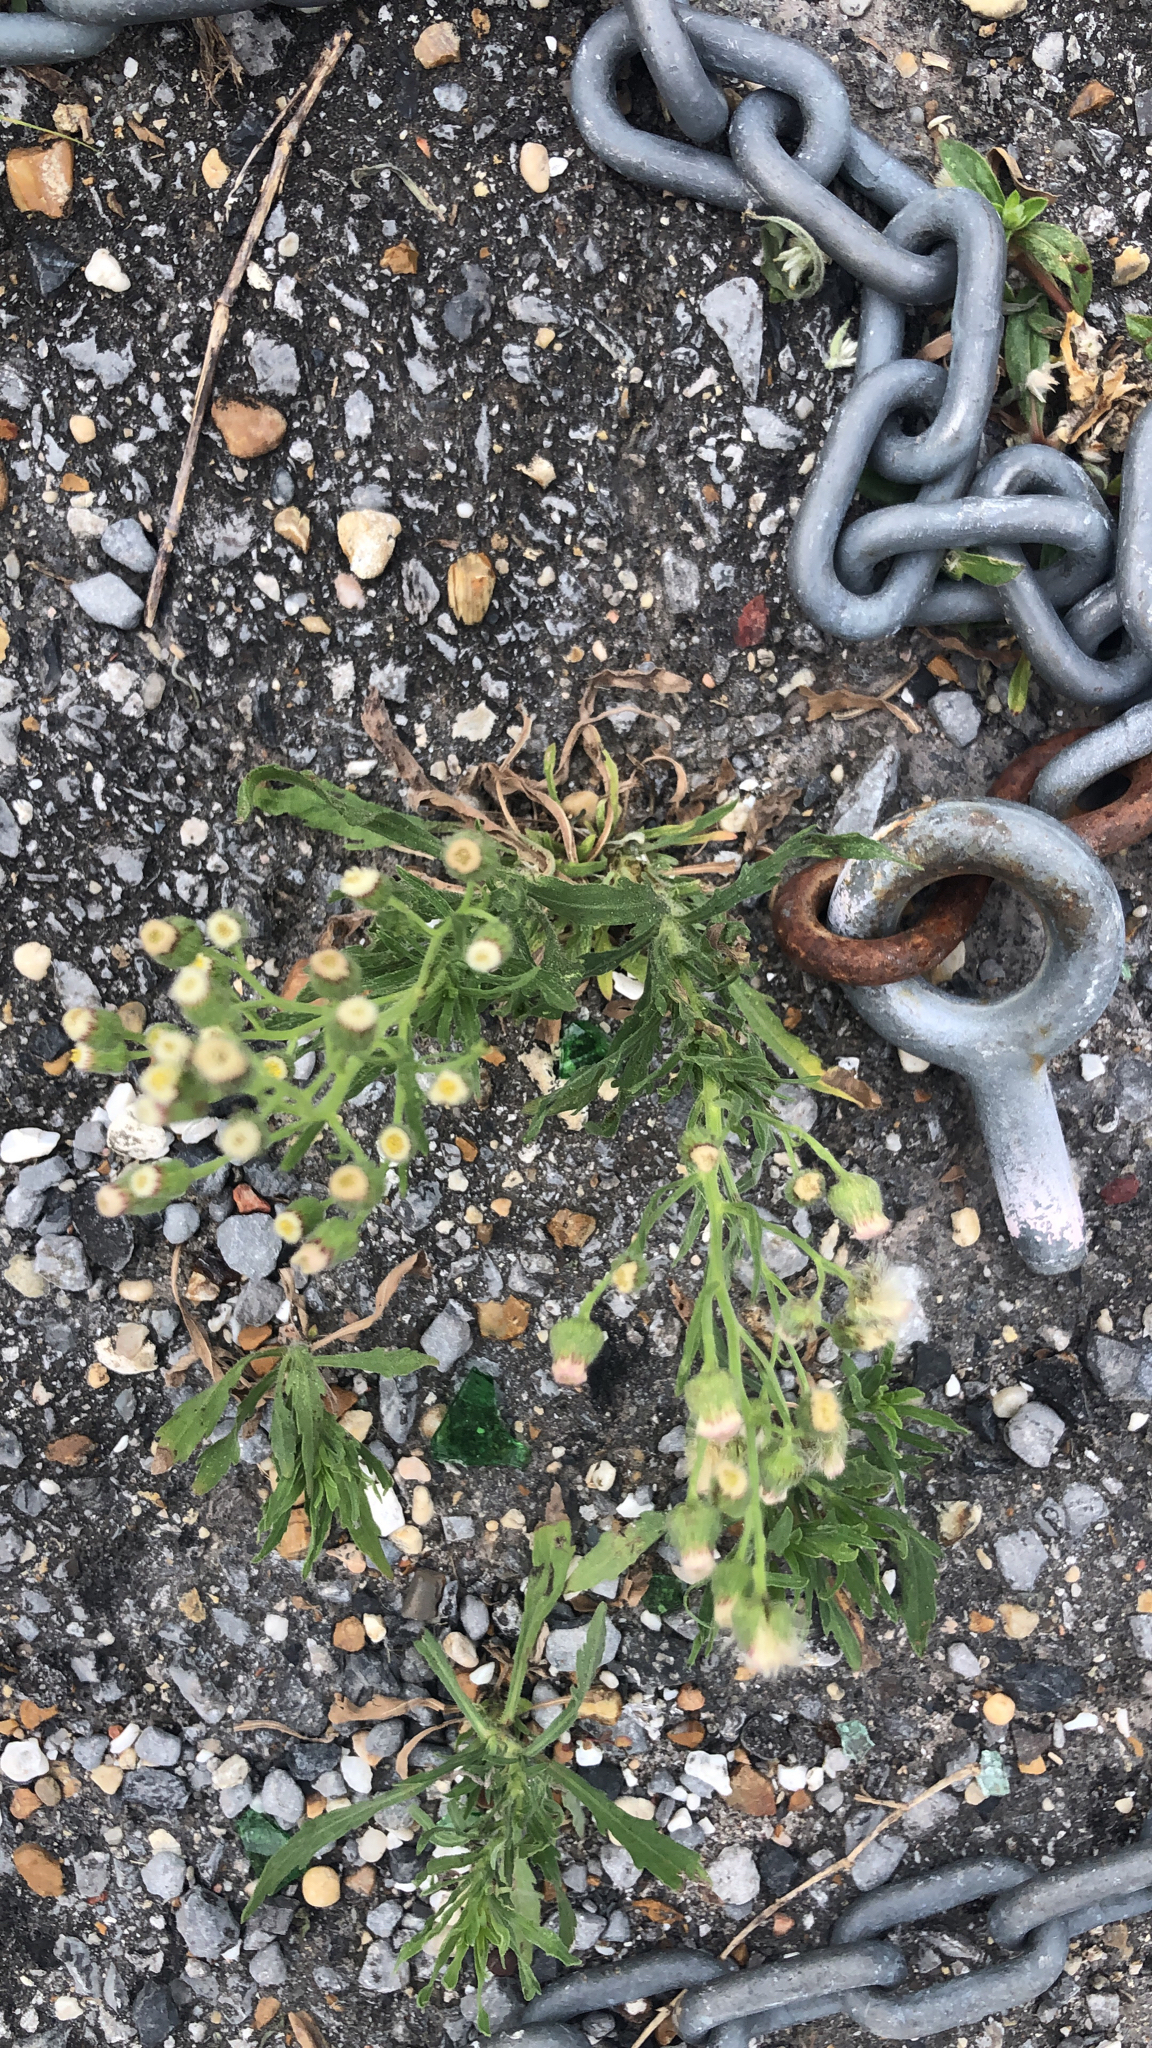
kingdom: Plantae
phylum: Tracheophyta
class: Magnoliopsida
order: Asterales
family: Asteraceae
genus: Erigeron
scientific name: Erigeron bonariensis
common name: Argentine fleabane
